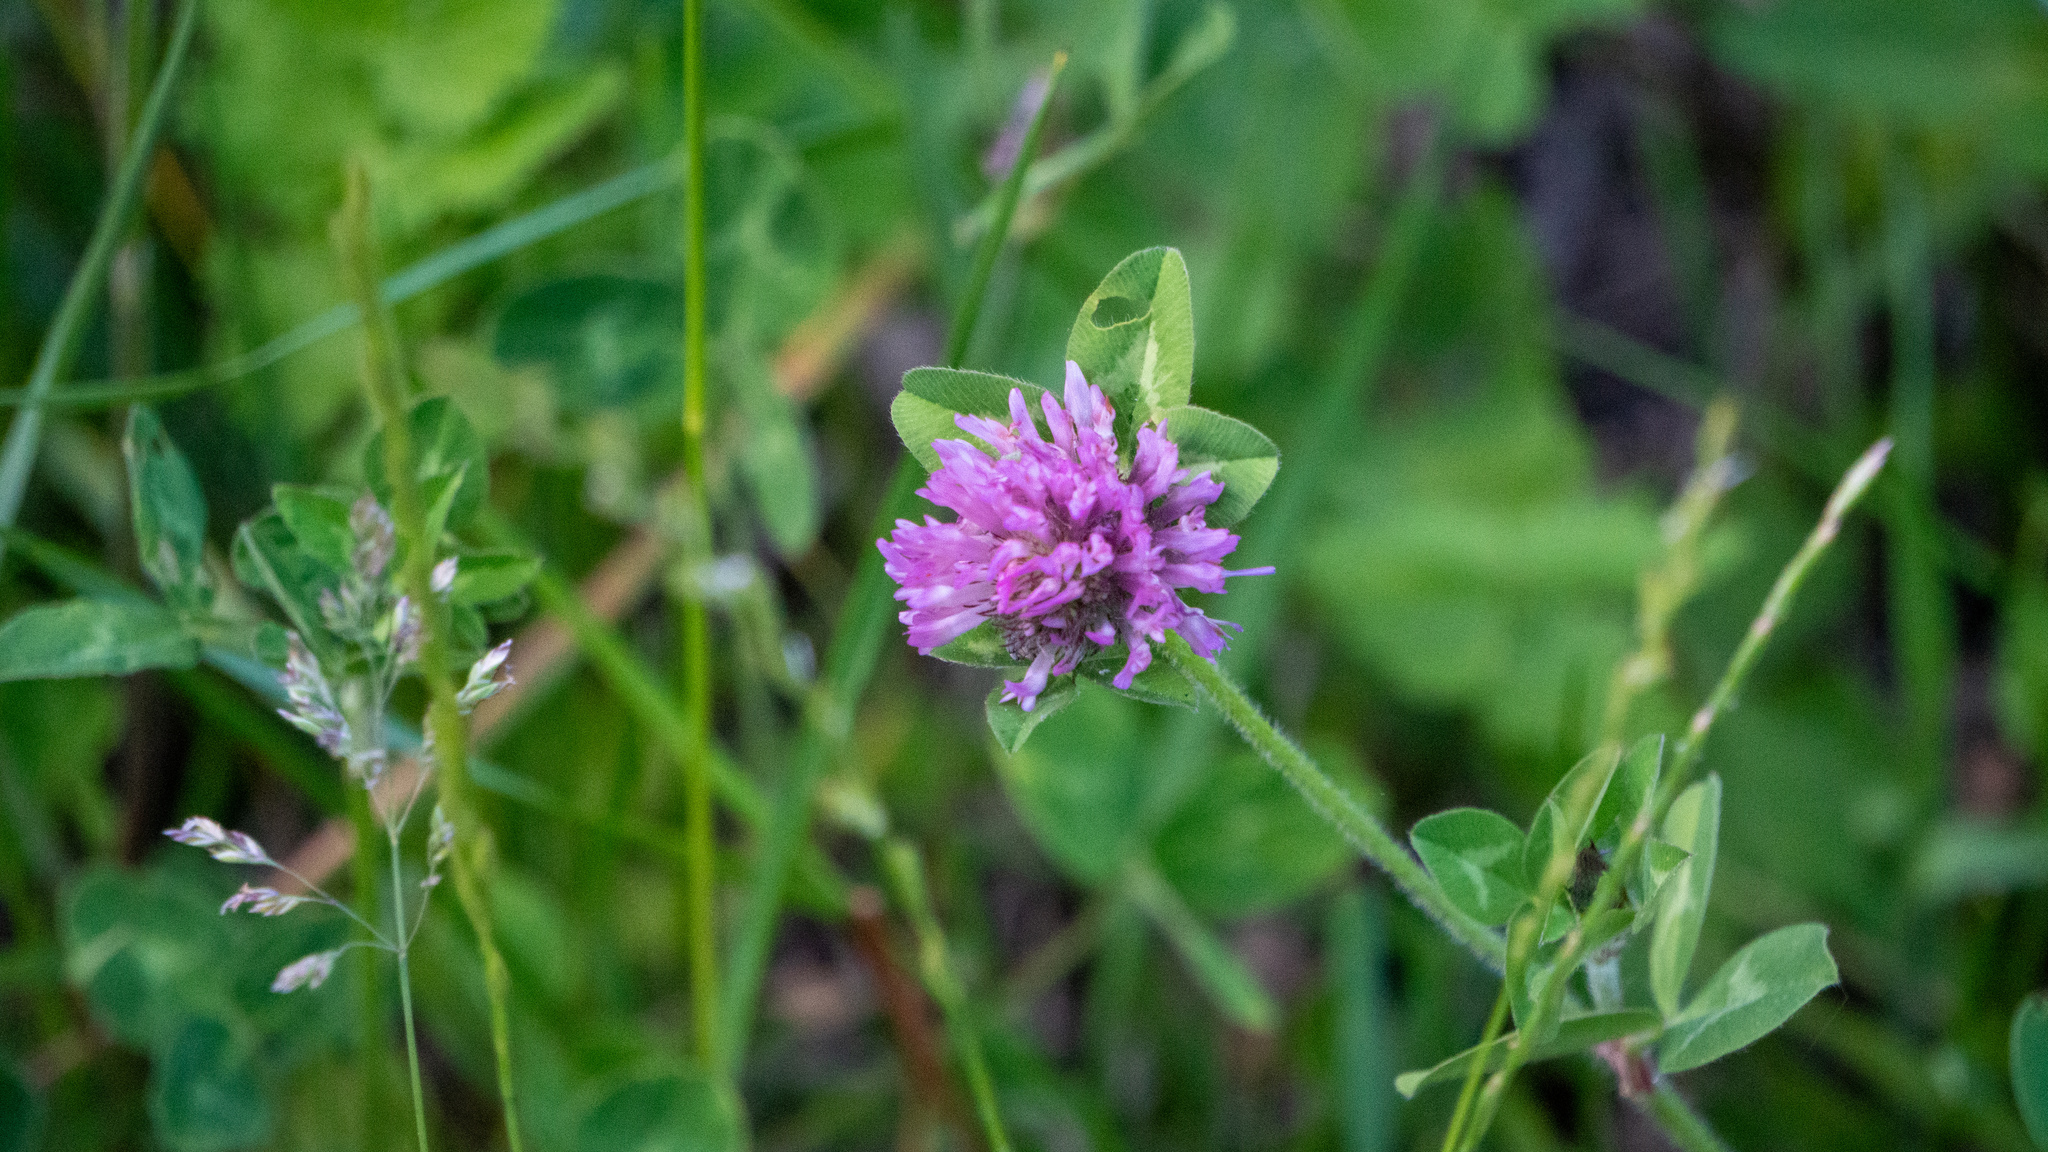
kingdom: Plantae
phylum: Tracheophyta
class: Magnoliopsida
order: Fabales
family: Fabaceae
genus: Trifolium
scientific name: Trifolium pratense
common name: Red clover
